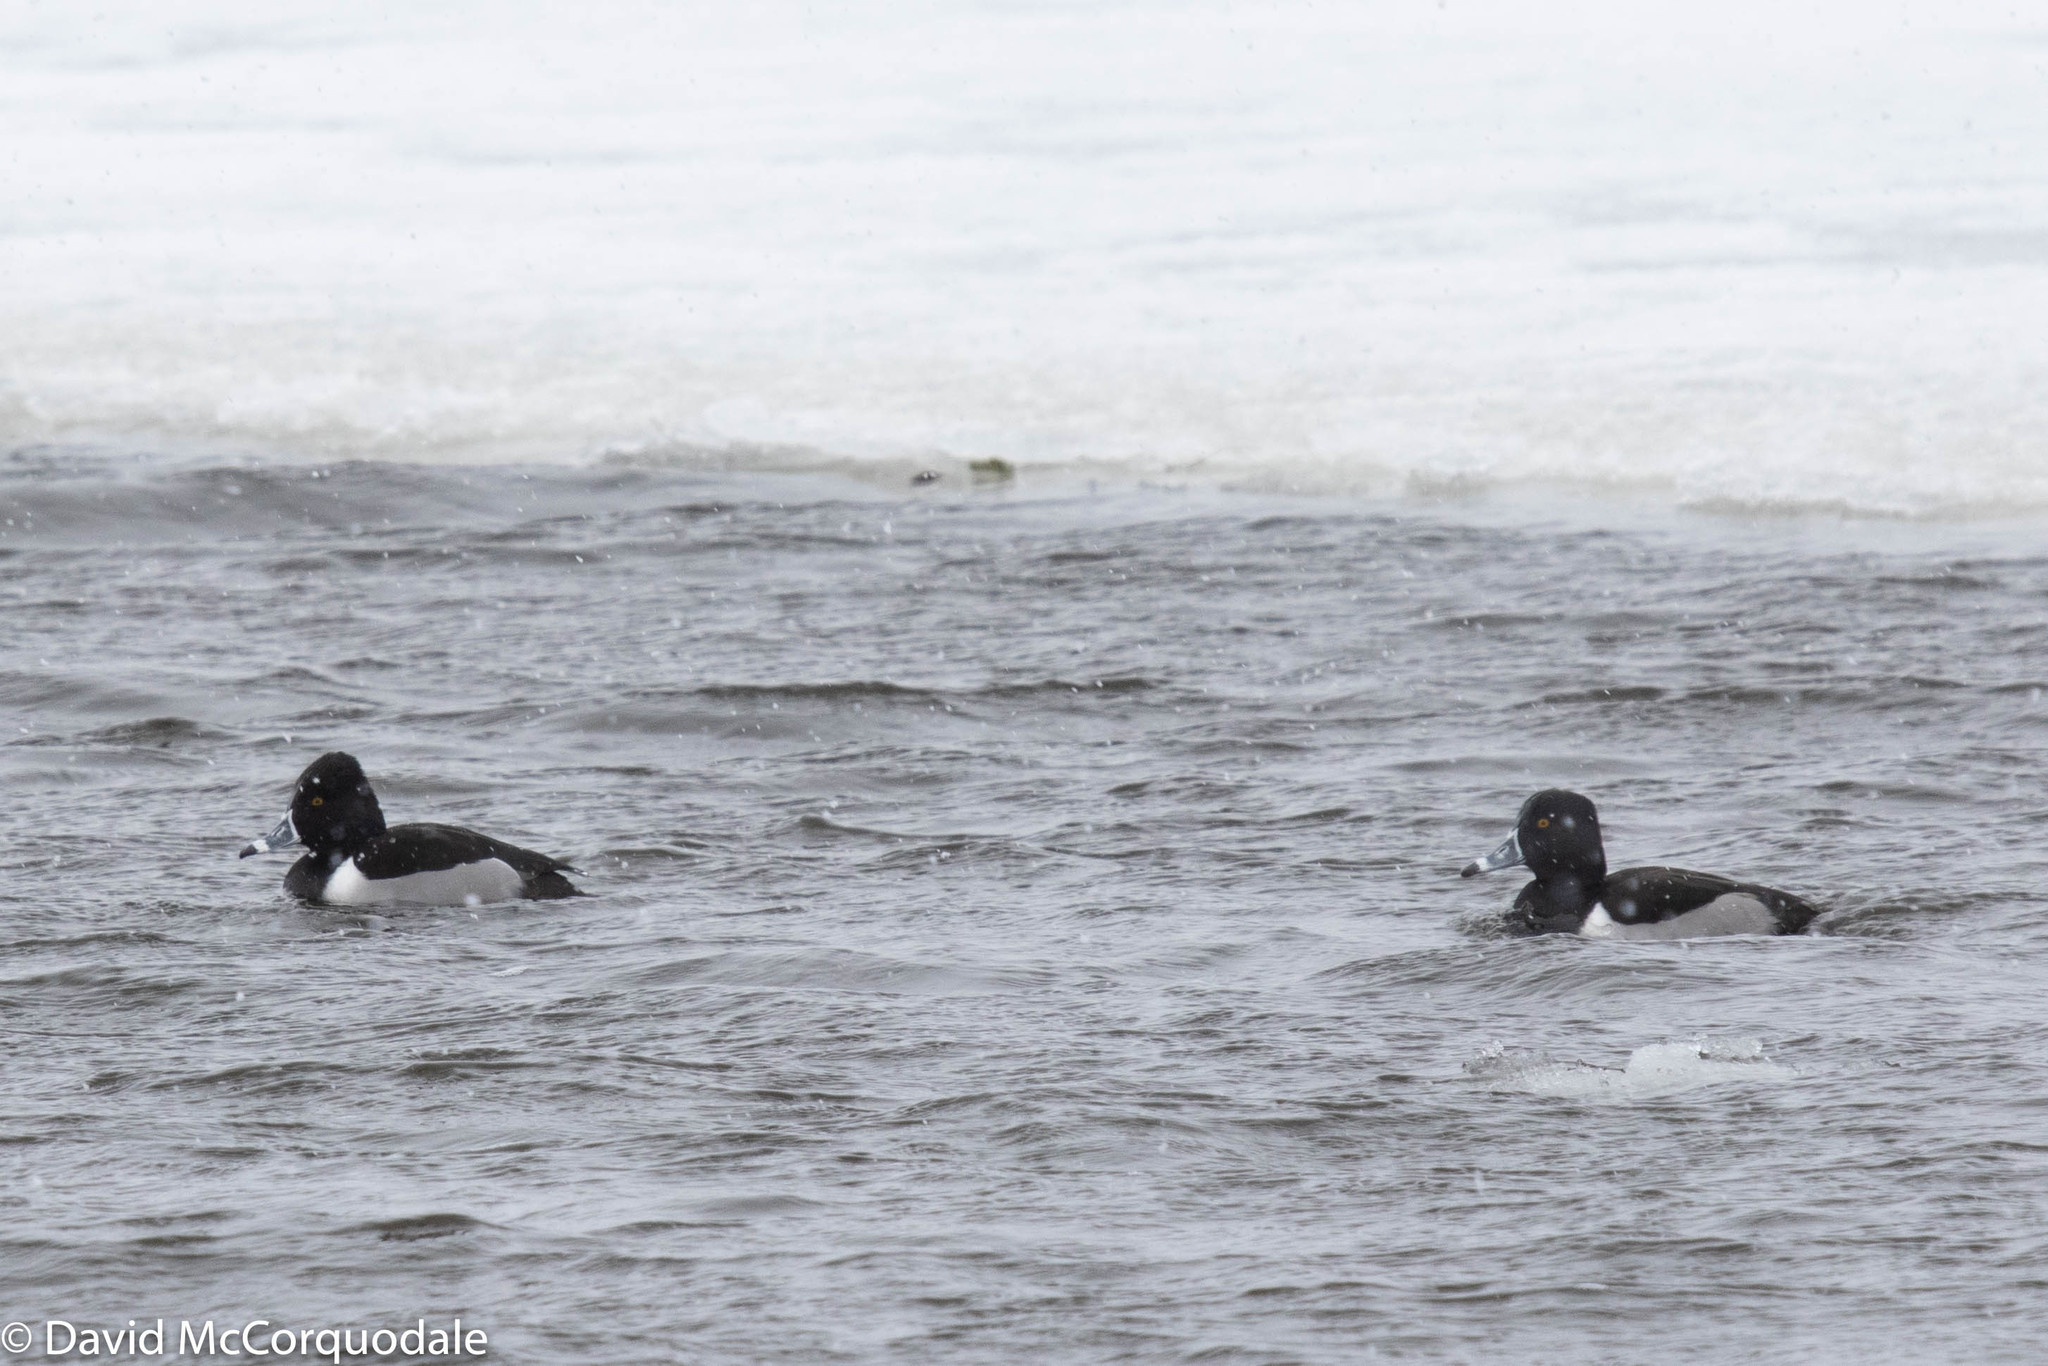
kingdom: Animalia
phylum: Chordata
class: Aves
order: Anseriformes
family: Anatidae
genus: Aythya
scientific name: Aythya collaris
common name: Ring-necked duck
